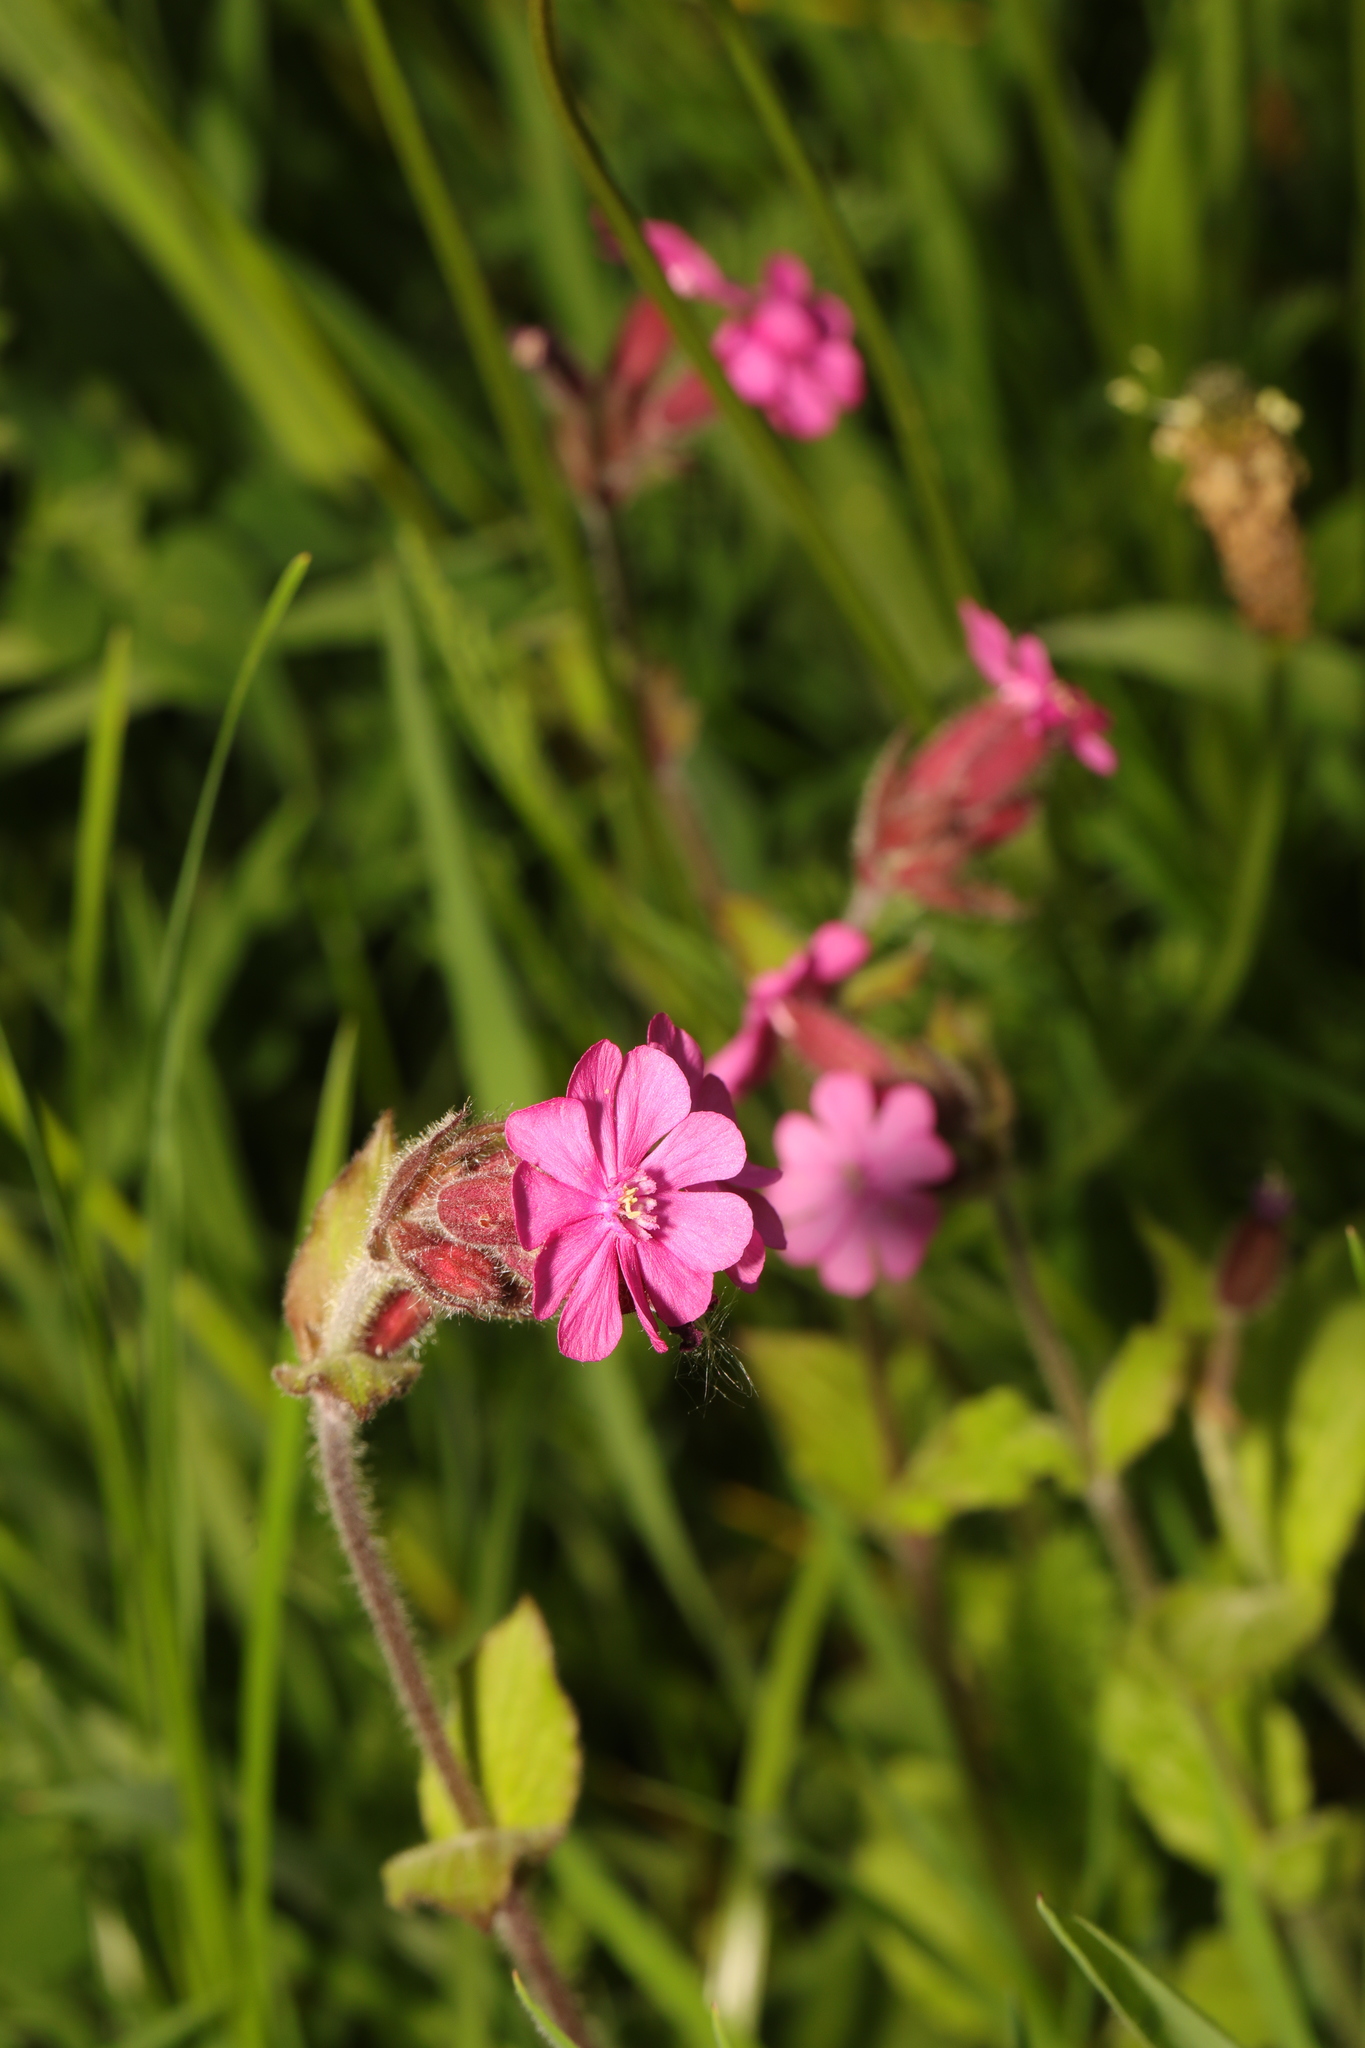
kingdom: Plantae
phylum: Tracheophyta
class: Magnoliopsida
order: Caryophyllales
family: Caryophyllaceae
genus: Silene
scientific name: Silene dioica
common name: Red campion
